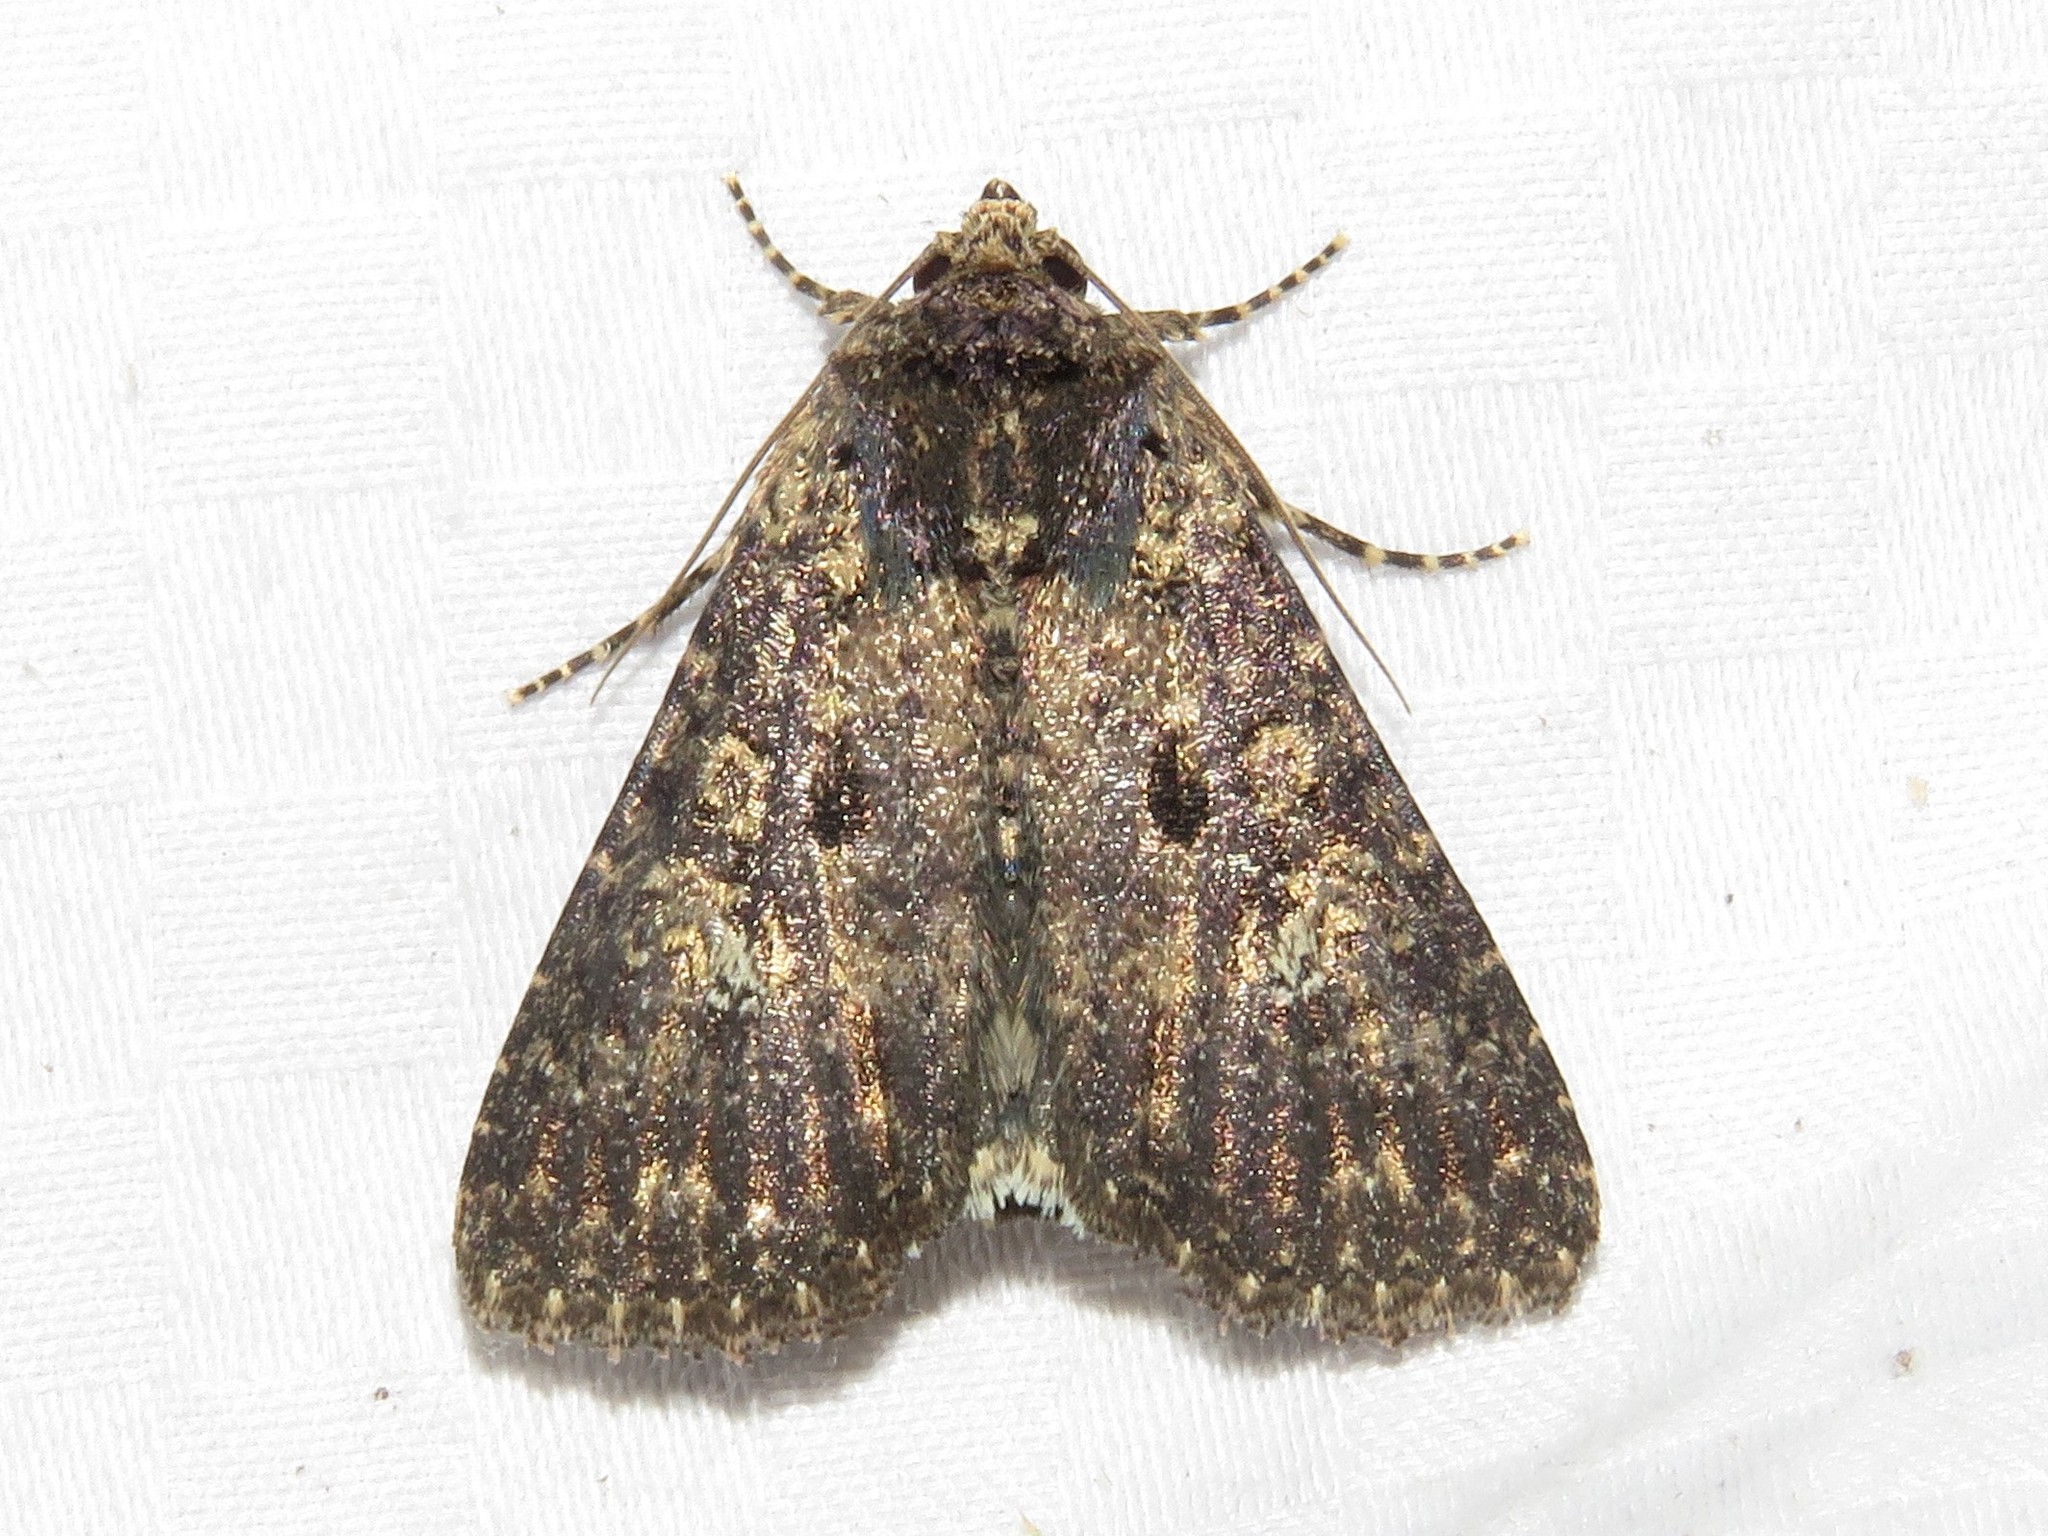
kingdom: Animalia
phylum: Arthropoda
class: Insecta
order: Lepidoptera
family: Noctuidae
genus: Condica
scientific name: Condica vecors
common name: Dusky groundling
